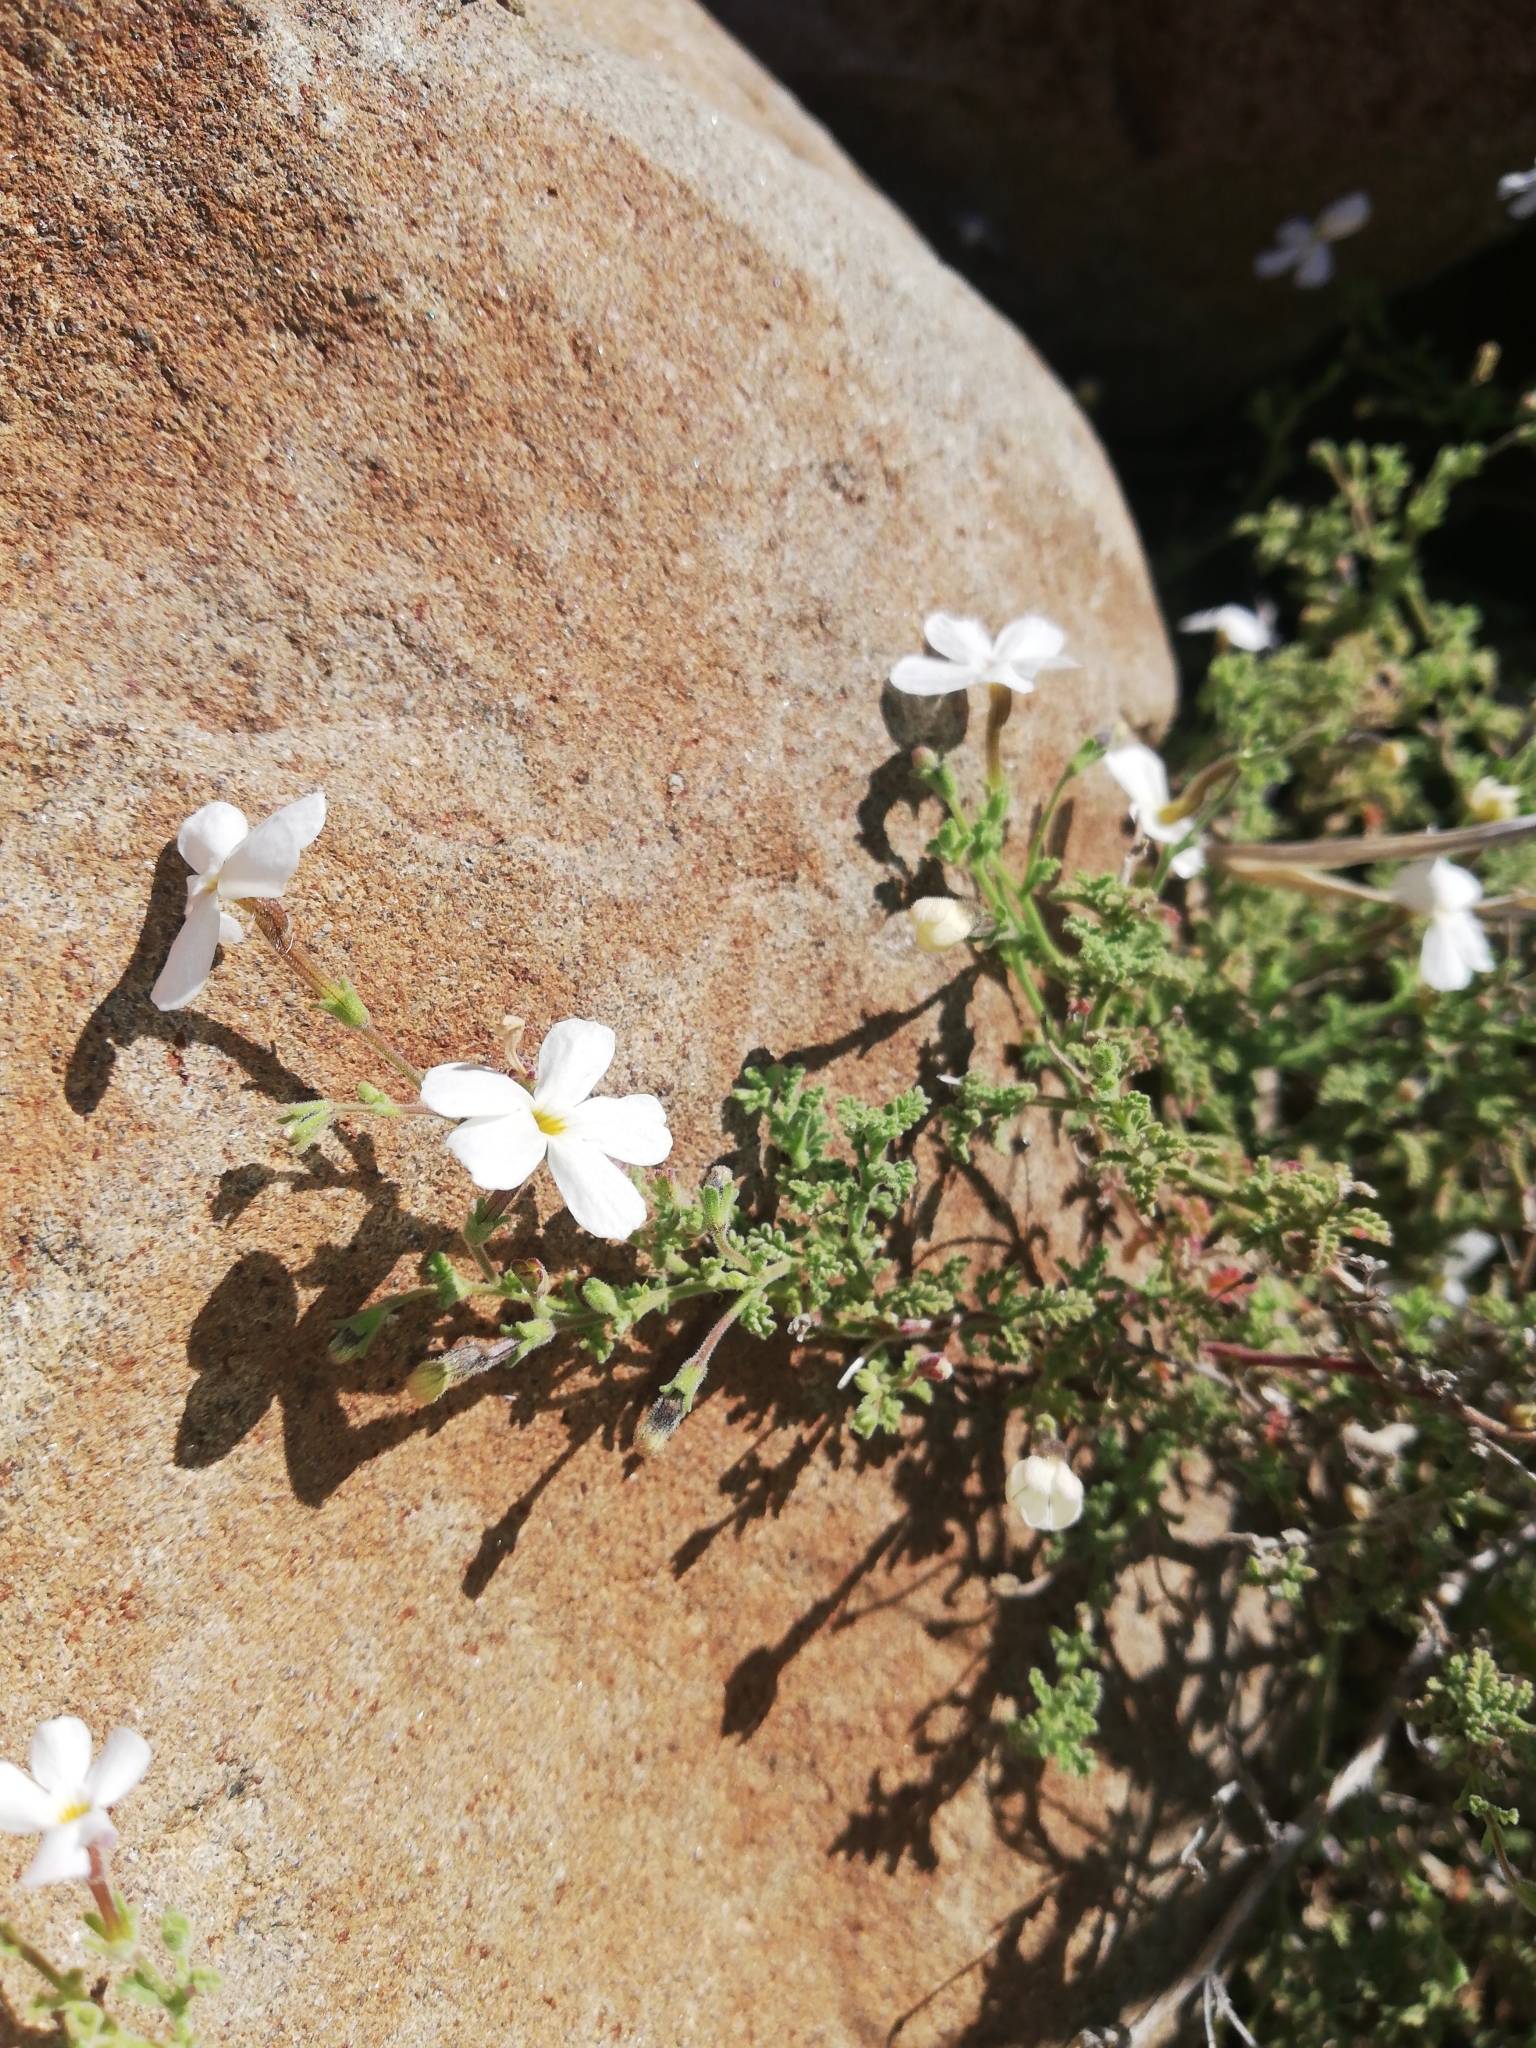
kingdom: Plantae
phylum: Tracheophyta
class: Magnoliopsida
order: Lamiales
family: Scrophulariaceae
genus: Jamesbrittenia
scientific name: Jamesbrittenia tysonii
